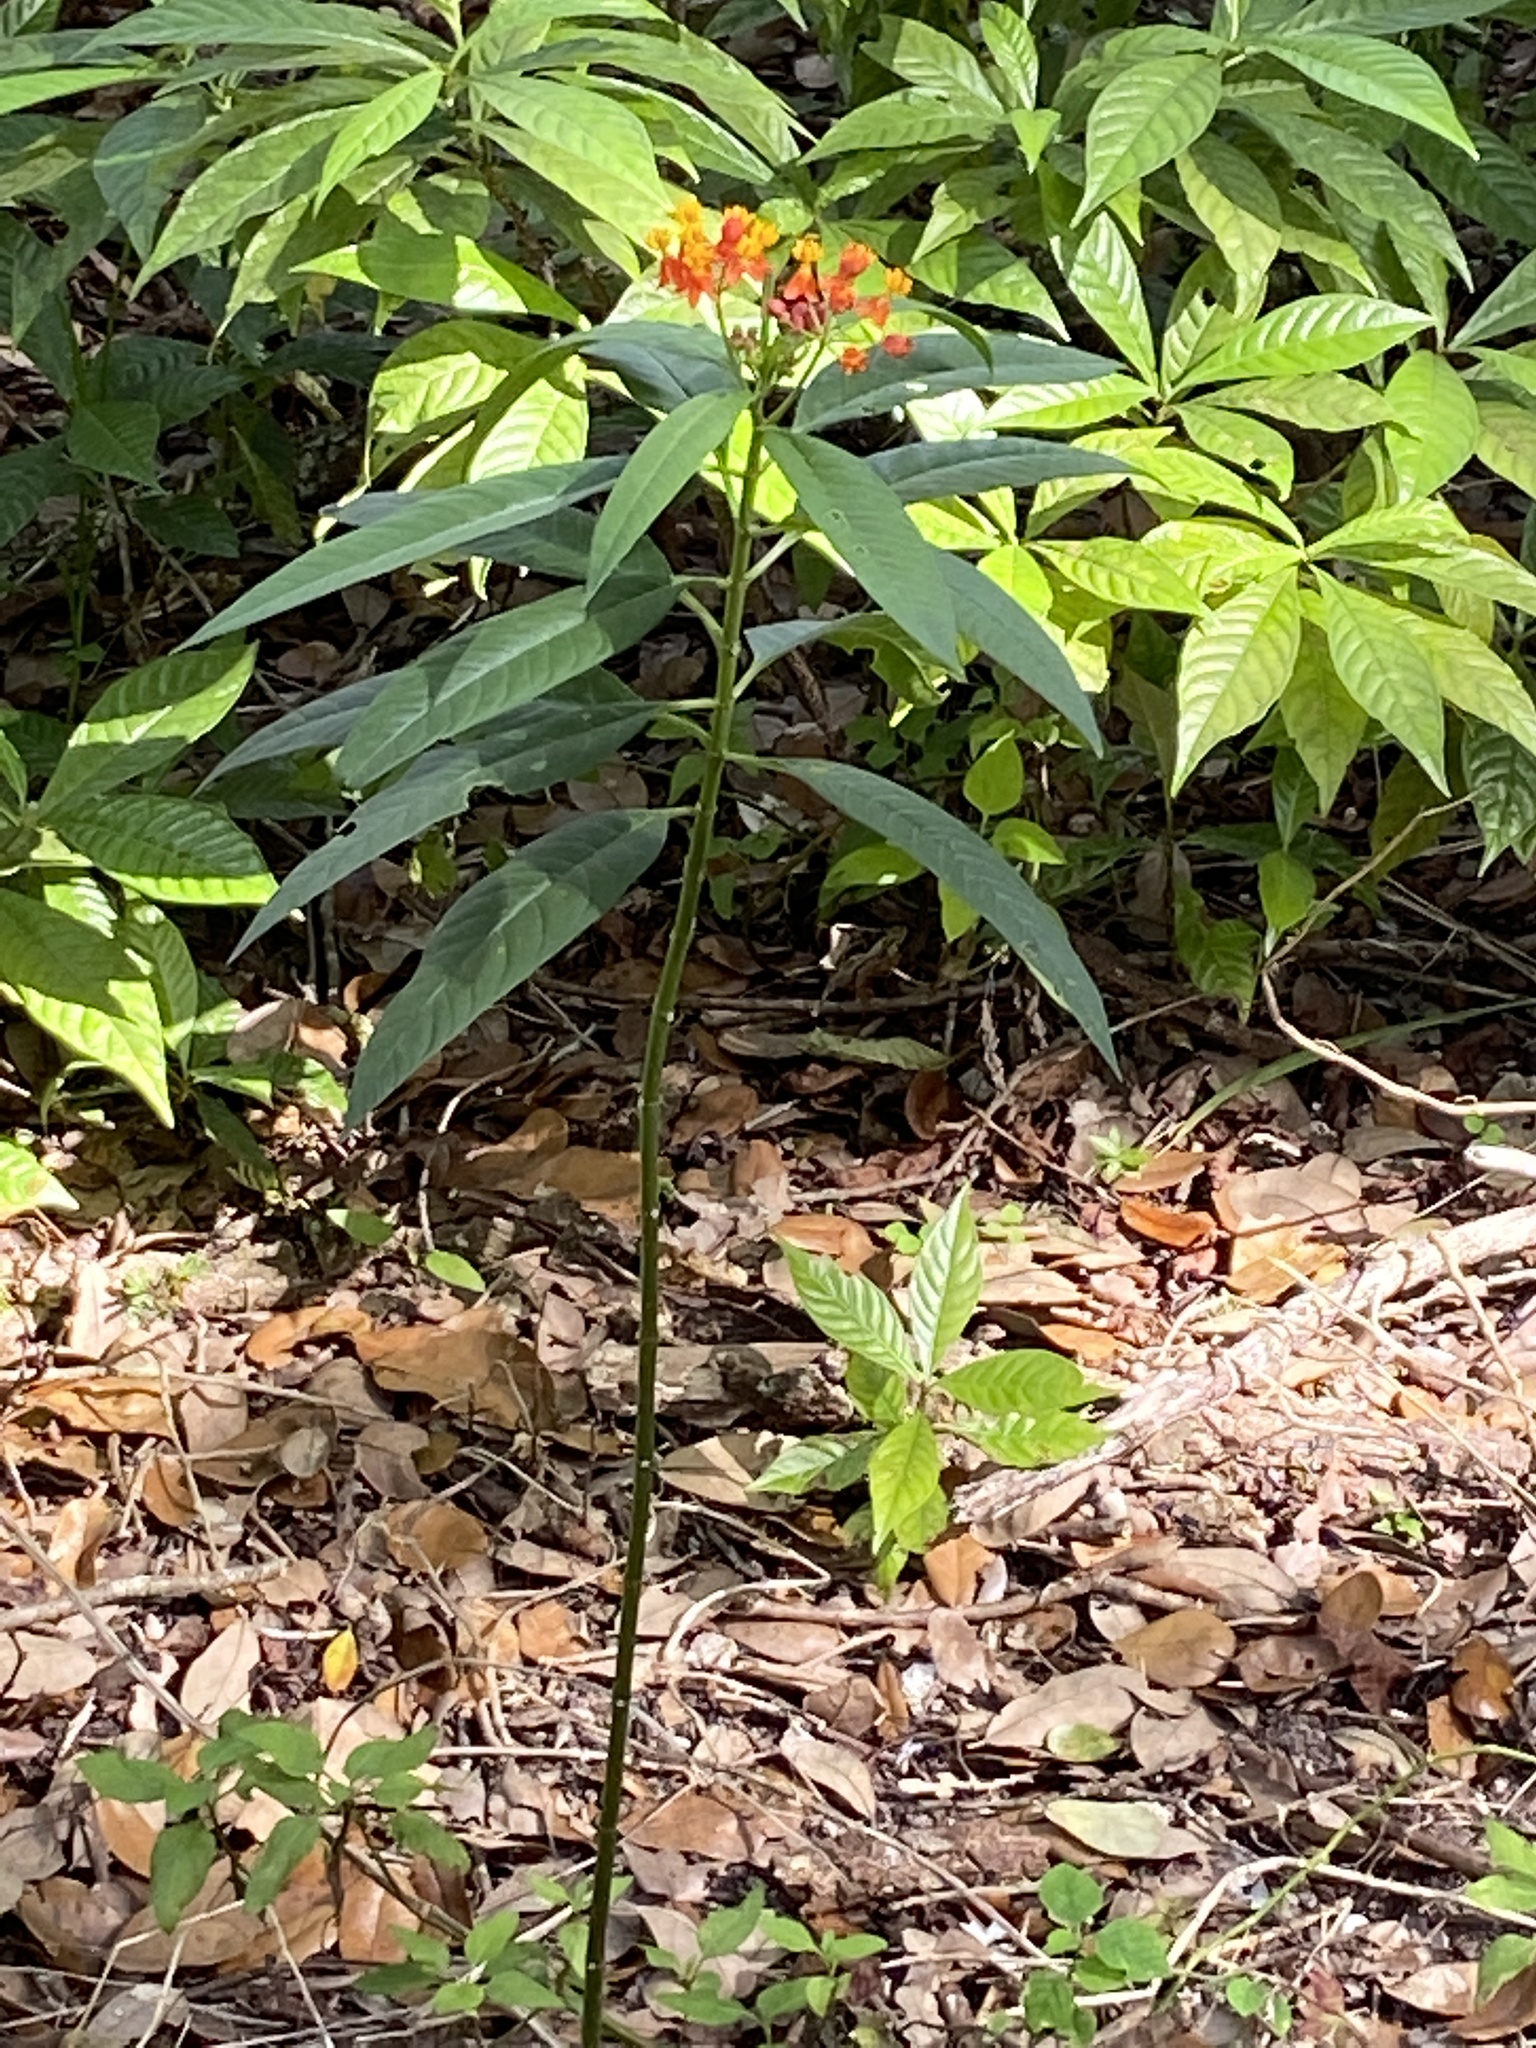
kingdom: Plantae
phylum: Tracheophyta
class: Magnoliopsida
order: Gentianales
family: Apocynaceae
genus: Asclepias
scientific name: Asclepias curassavica
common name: Bloodflower
